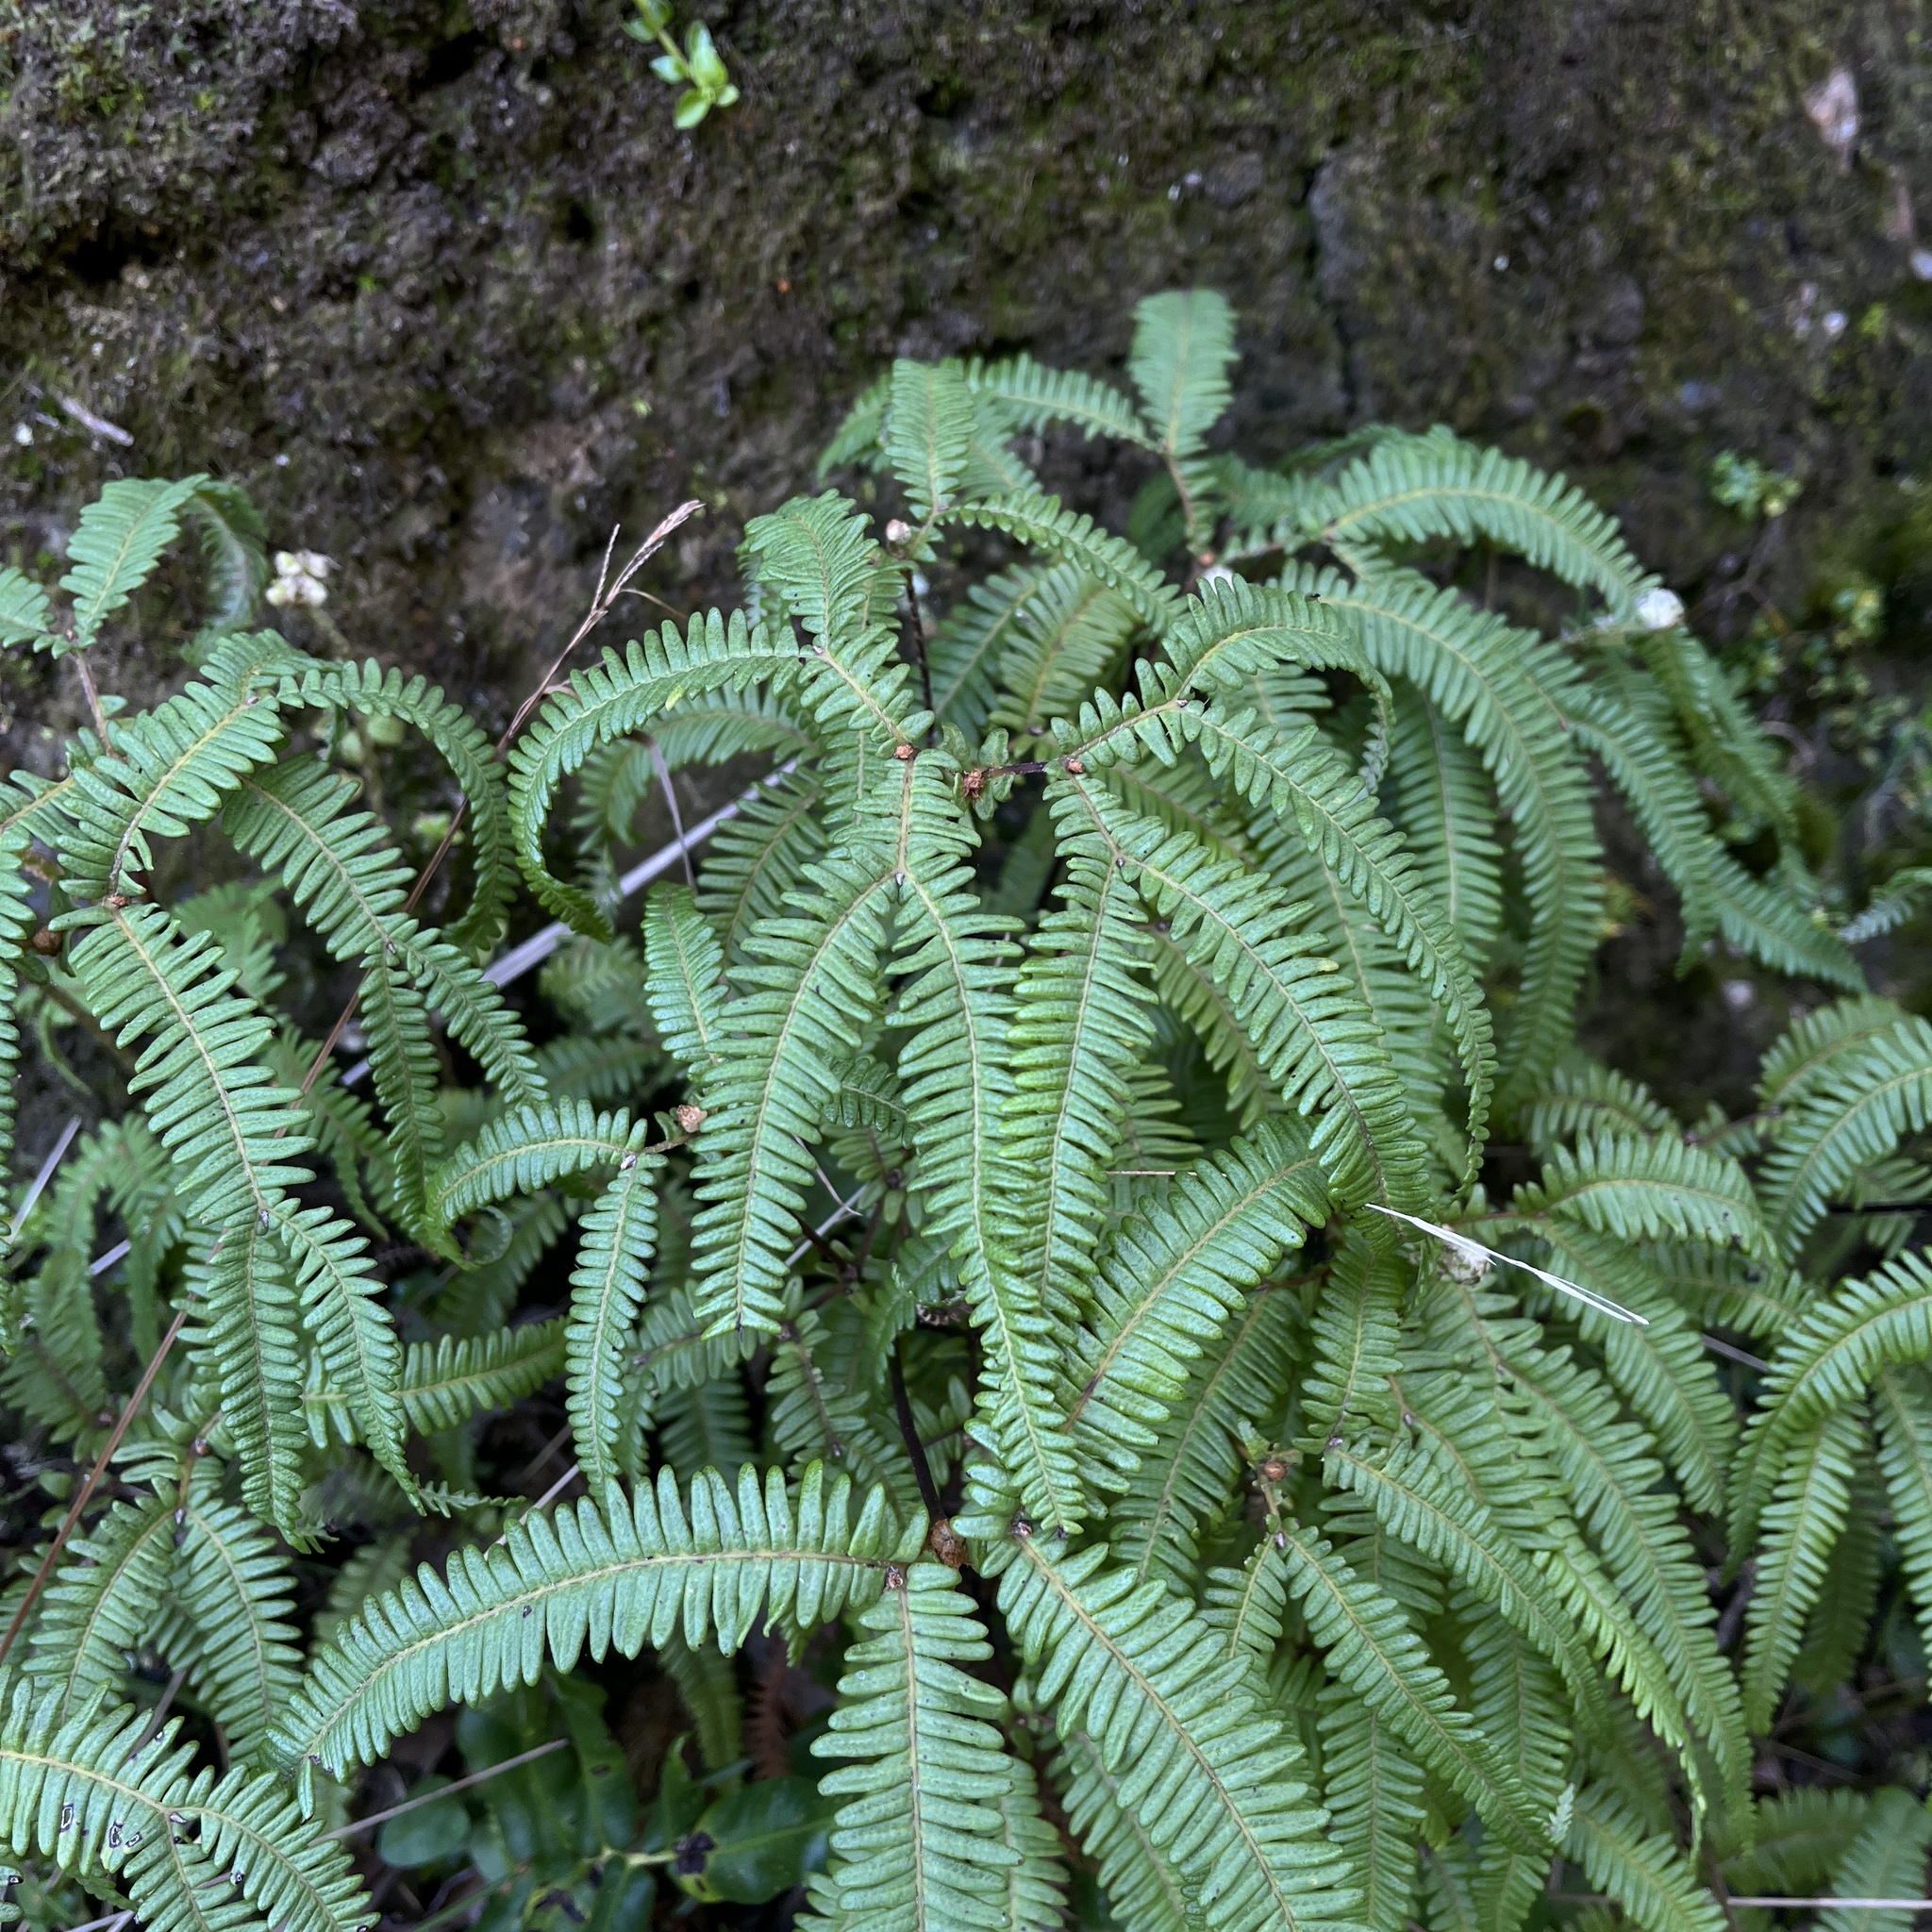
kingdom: Plantae
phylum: Tracheophyta
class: Polypodiopsida
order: Gleicheniales
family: Gleicheniaceae
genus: Sticherus
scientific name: Sticherus squamulosus
